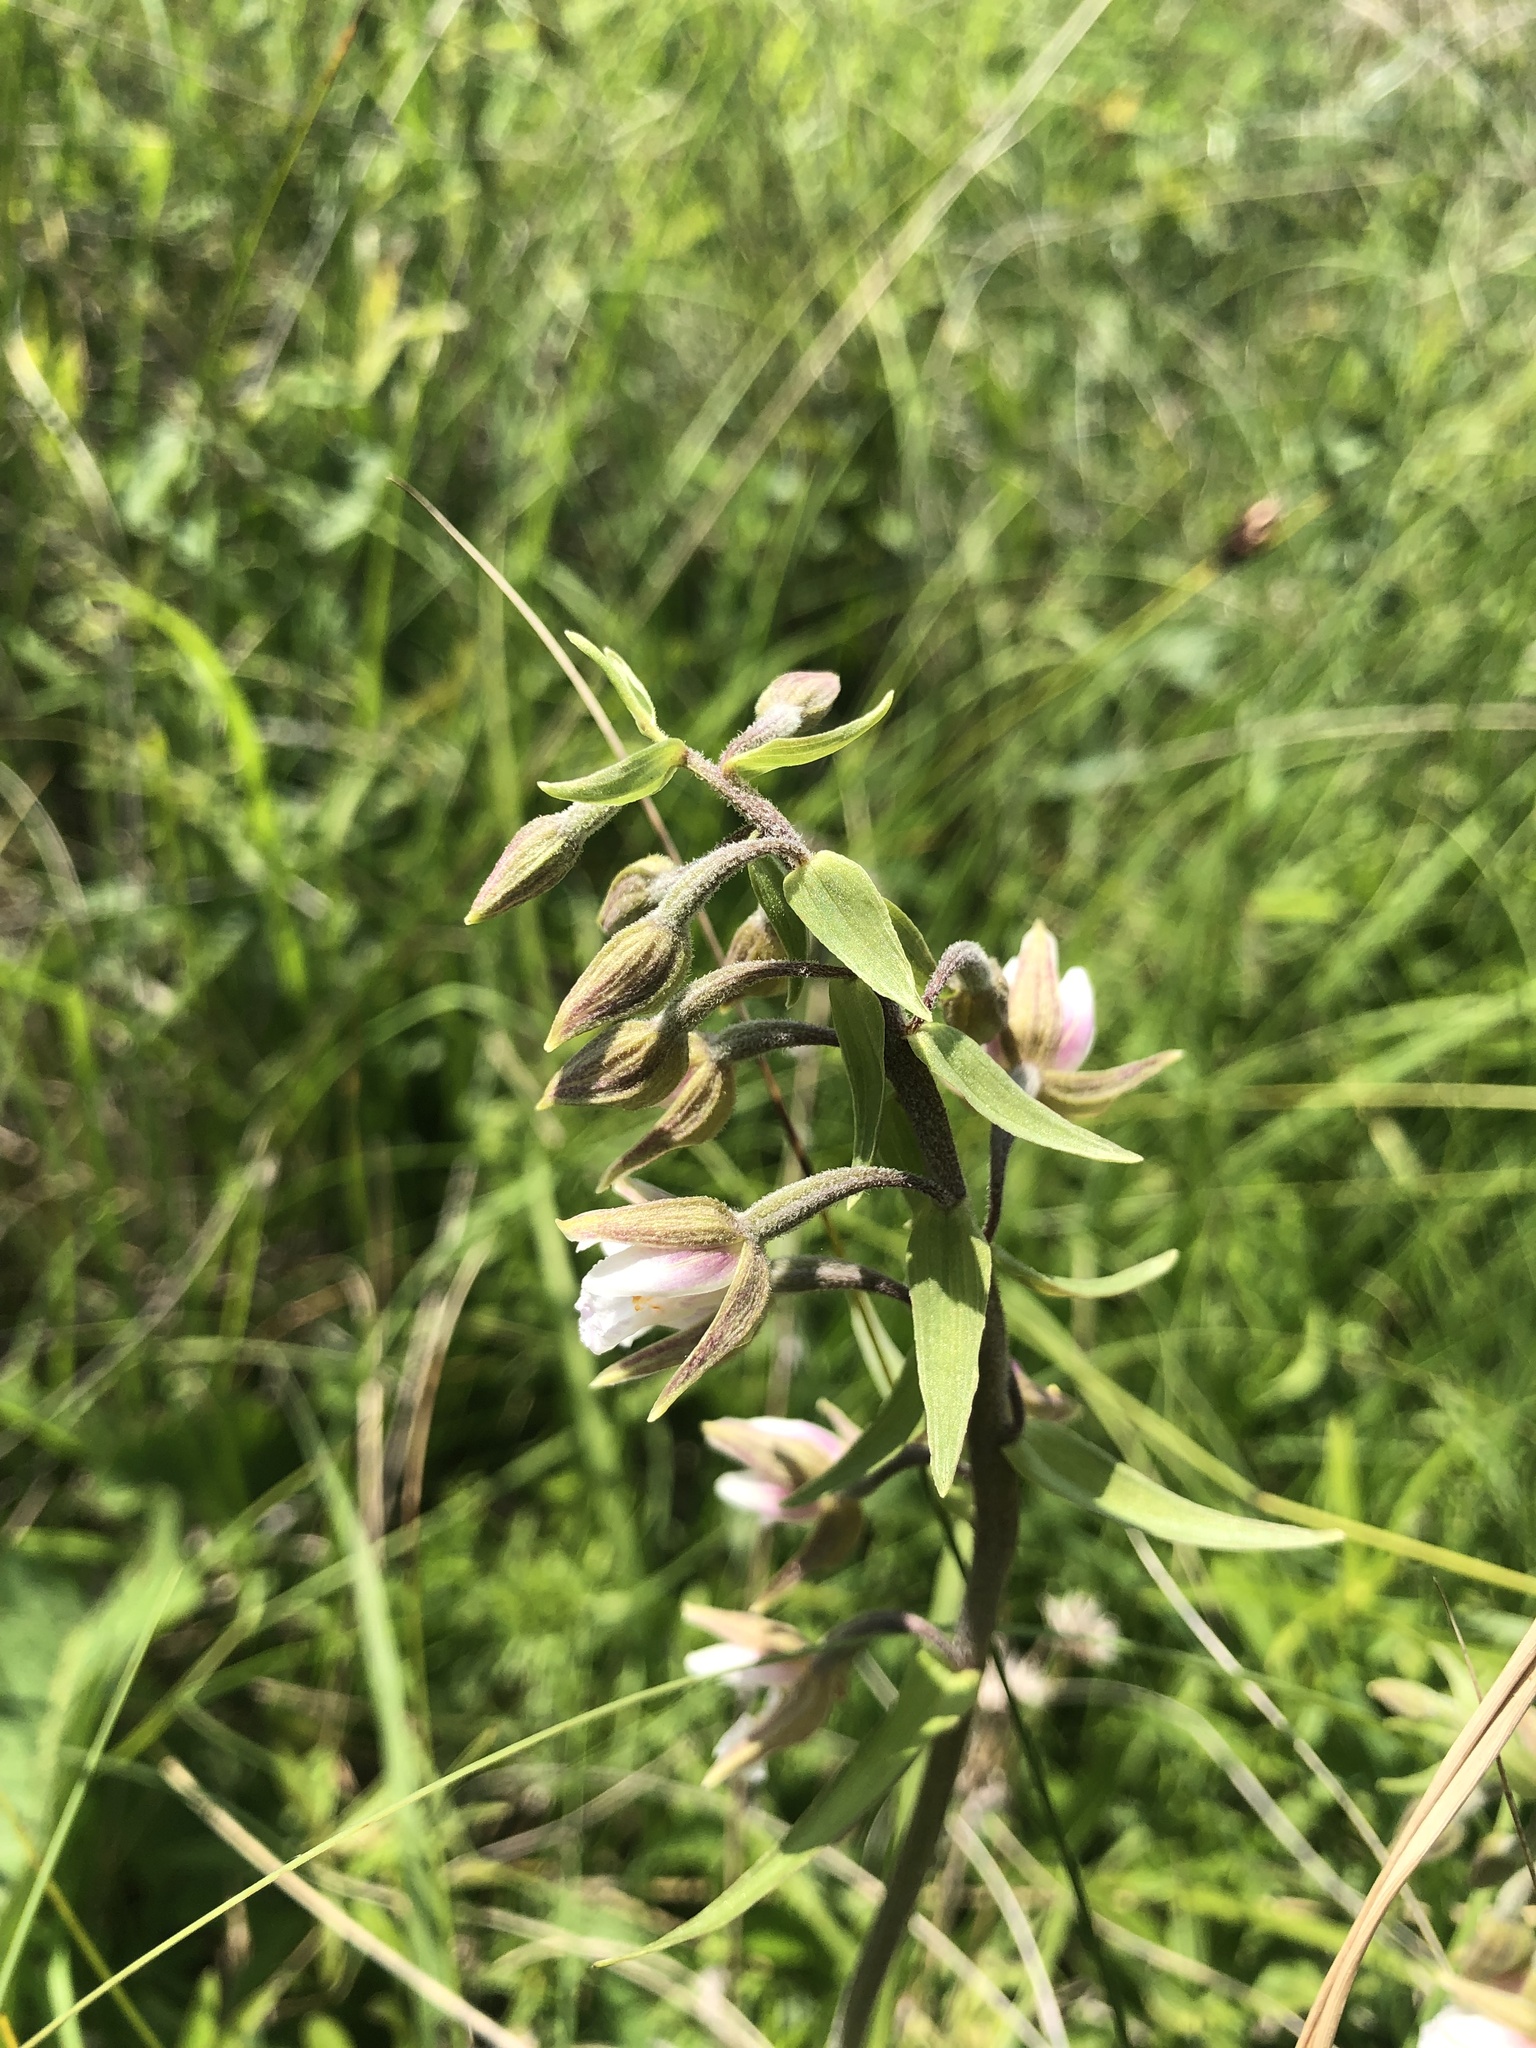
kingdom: Plantae
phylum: Tracheophyta
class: Liliopsida
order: Asparagales
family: Orchidaceae
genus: Epipactis
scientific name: Epipactis palustris
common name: Marsh helleborine
